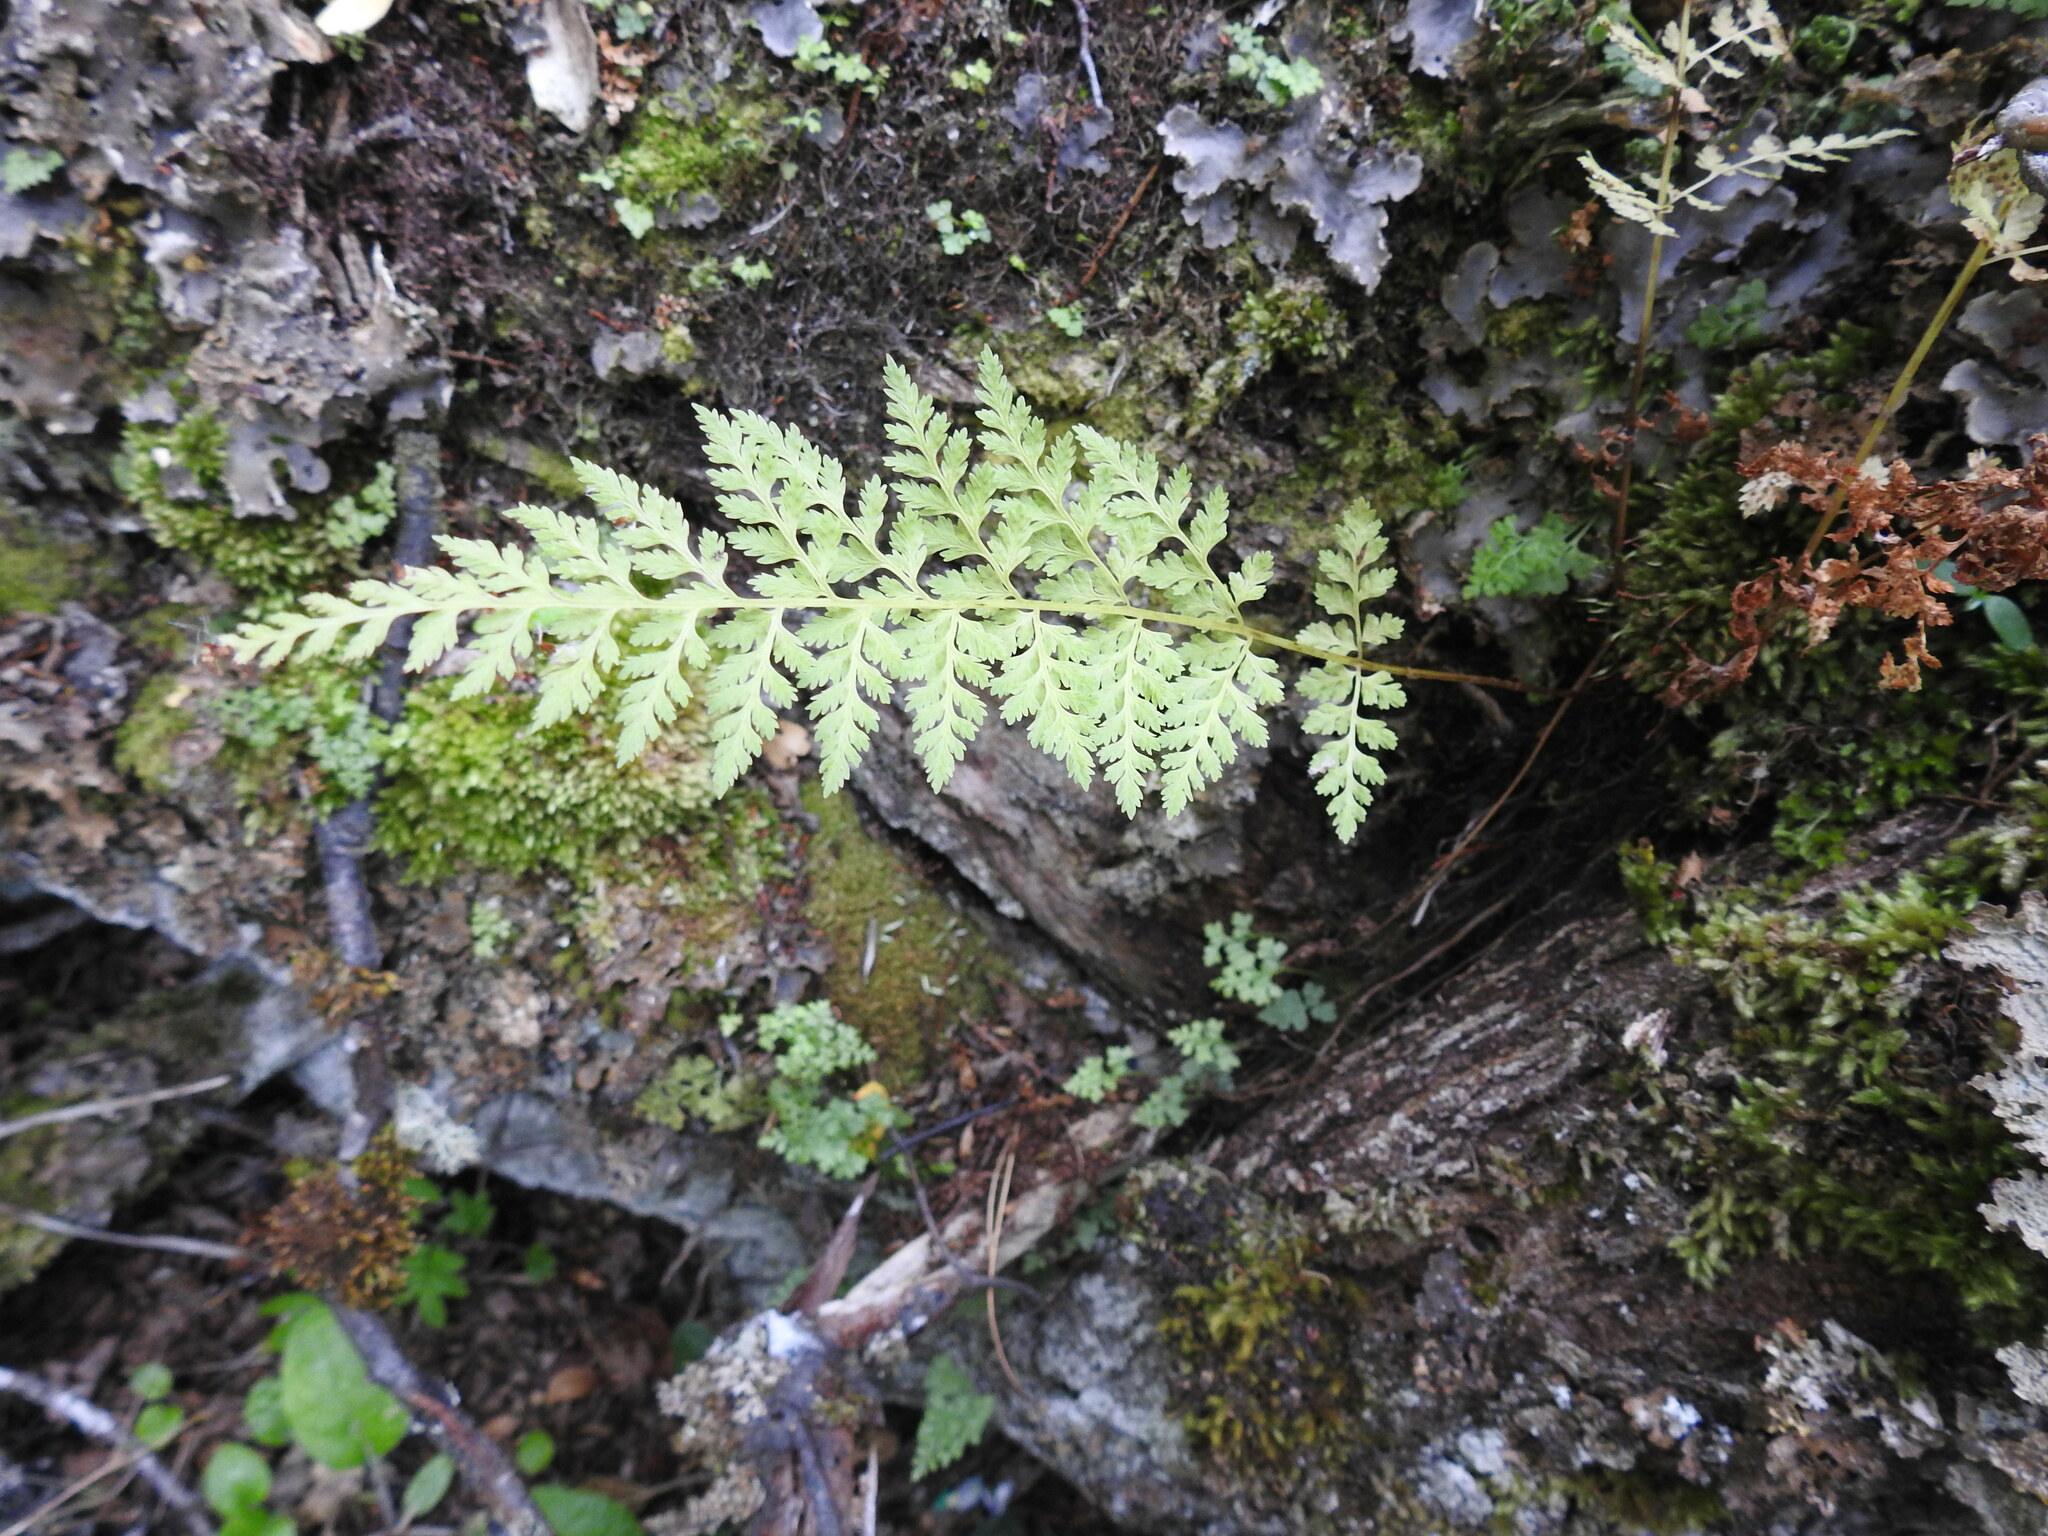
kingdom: Plantae
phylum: Tracheophyta
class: Polypodiopsida
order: Polypodiales
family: Cystopteridaceae
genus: Cystopteris
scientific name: Cystopteris
